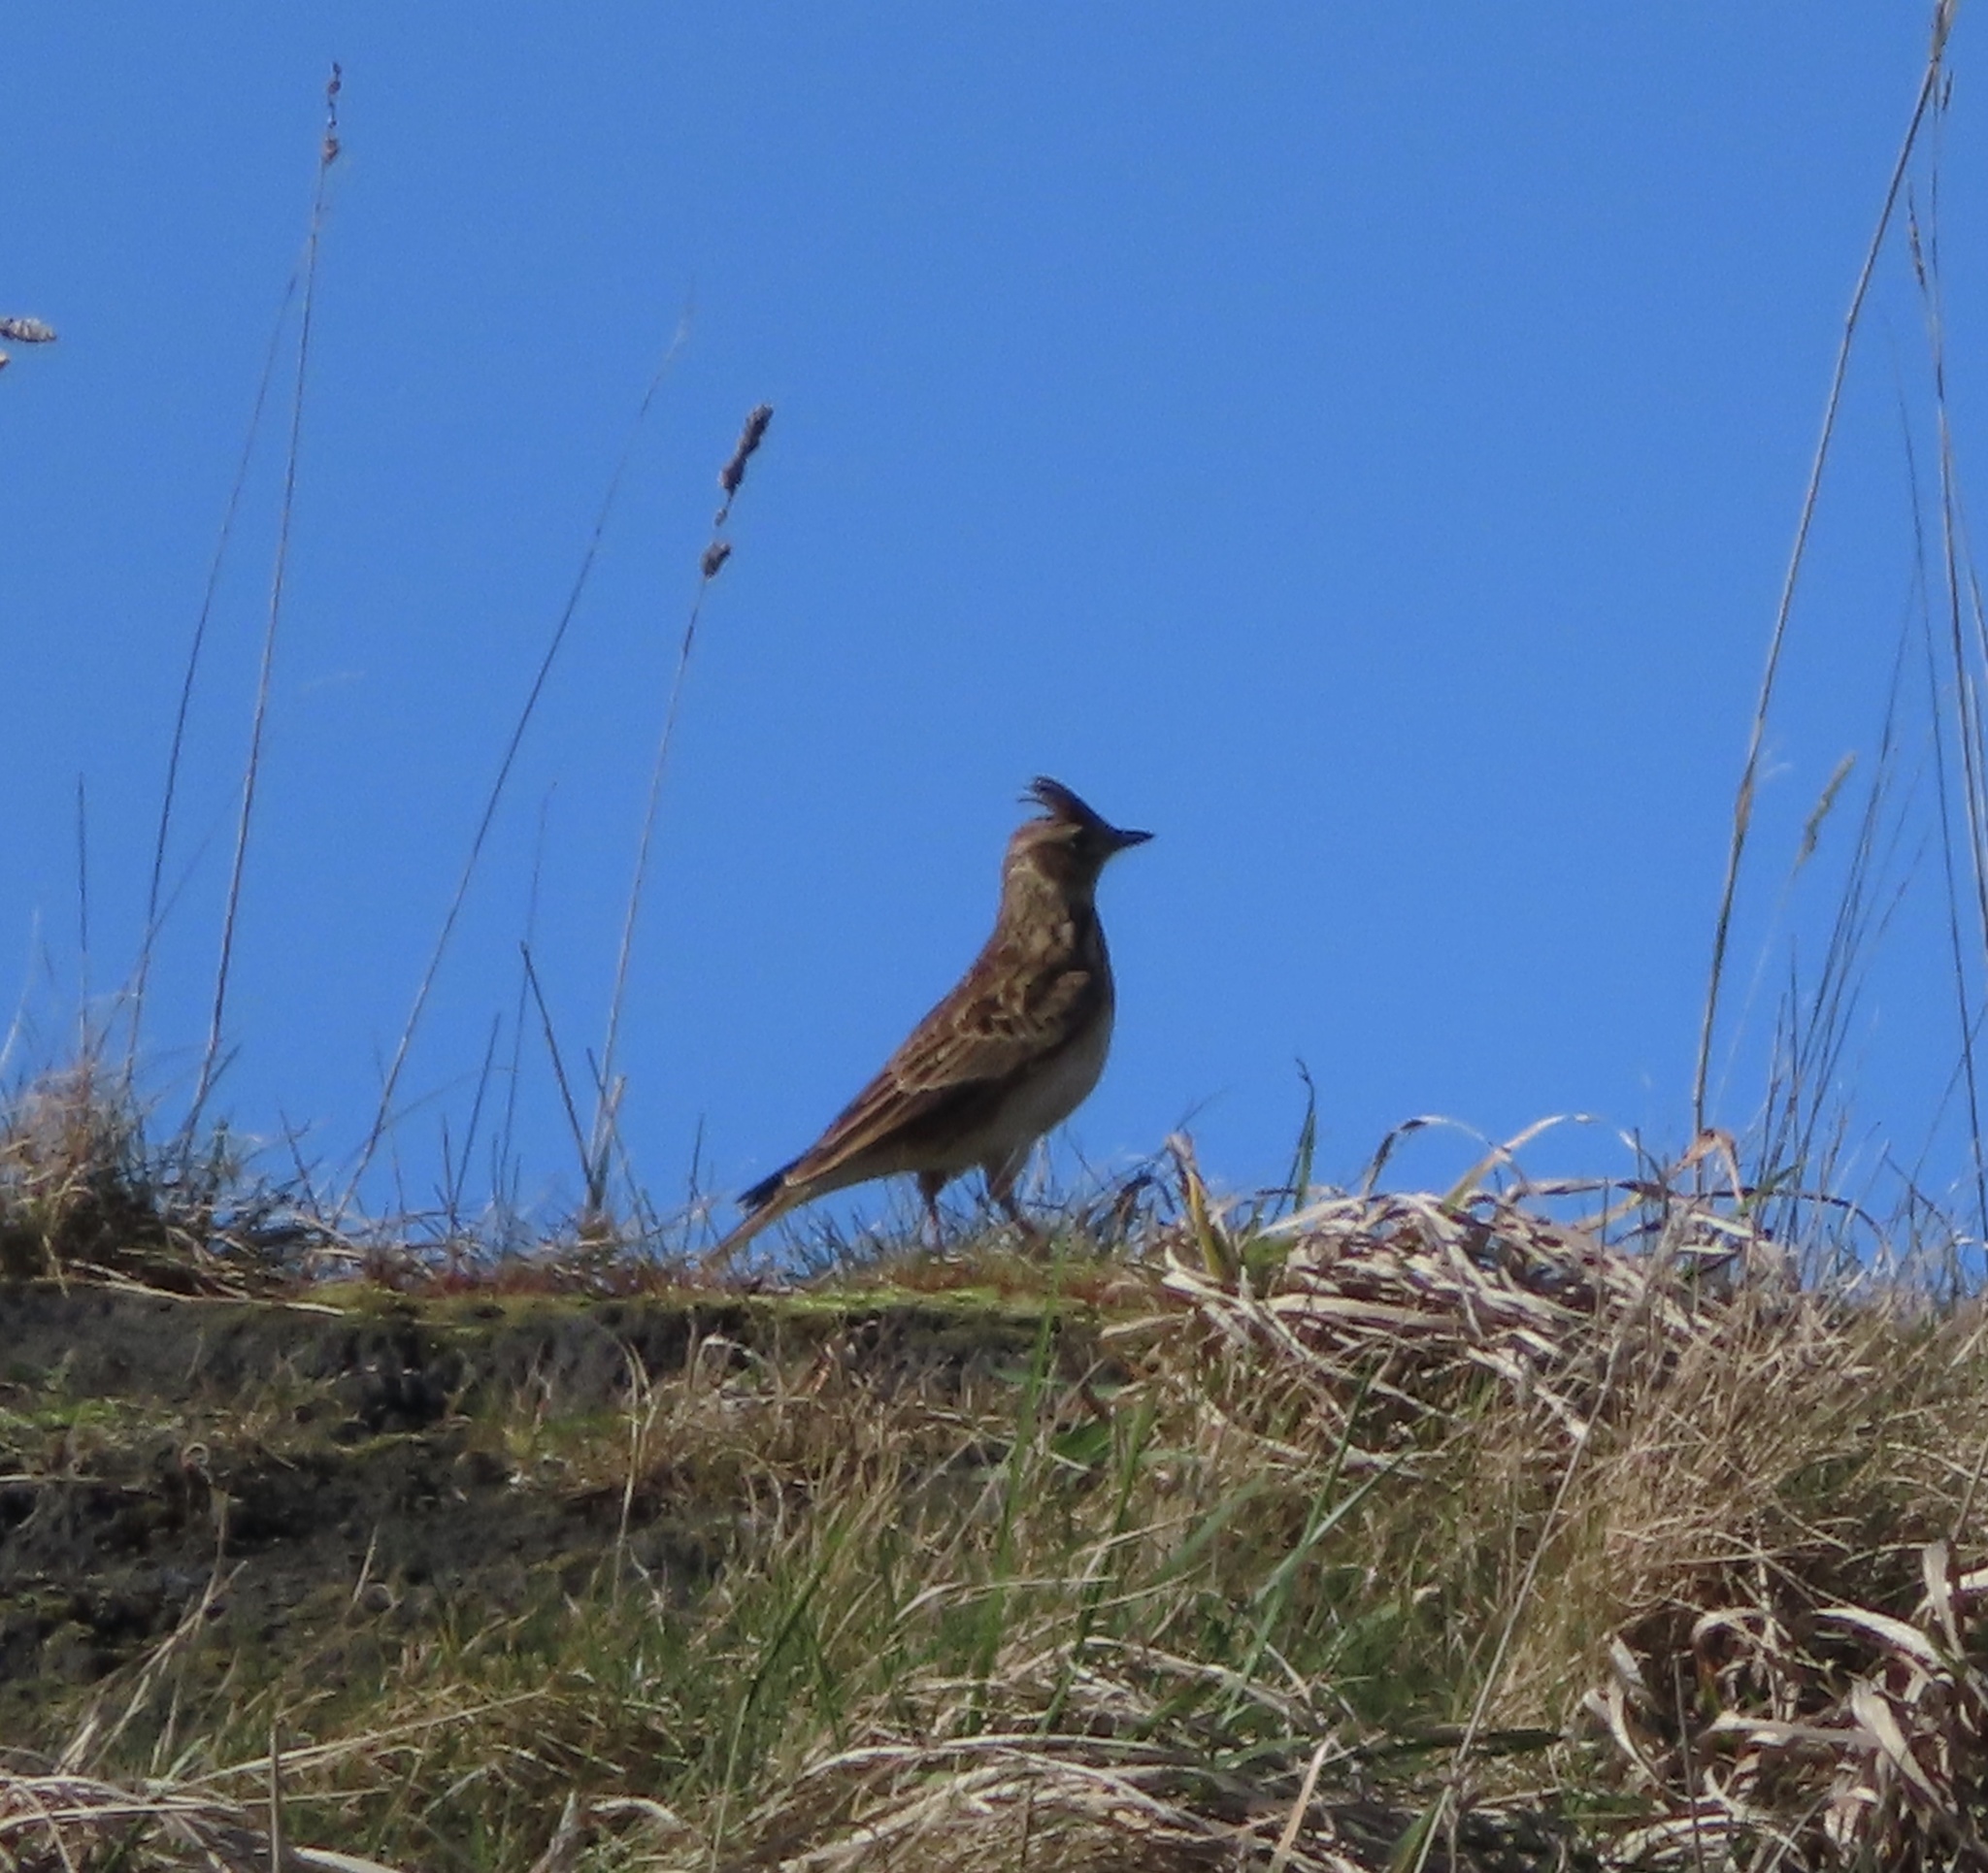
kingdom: Animalia
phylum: Chordata
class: Aves
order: Passeriformes
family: Alaudidae
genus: Alauda
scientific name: Alauda arvensis
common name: Eurasian skylark
